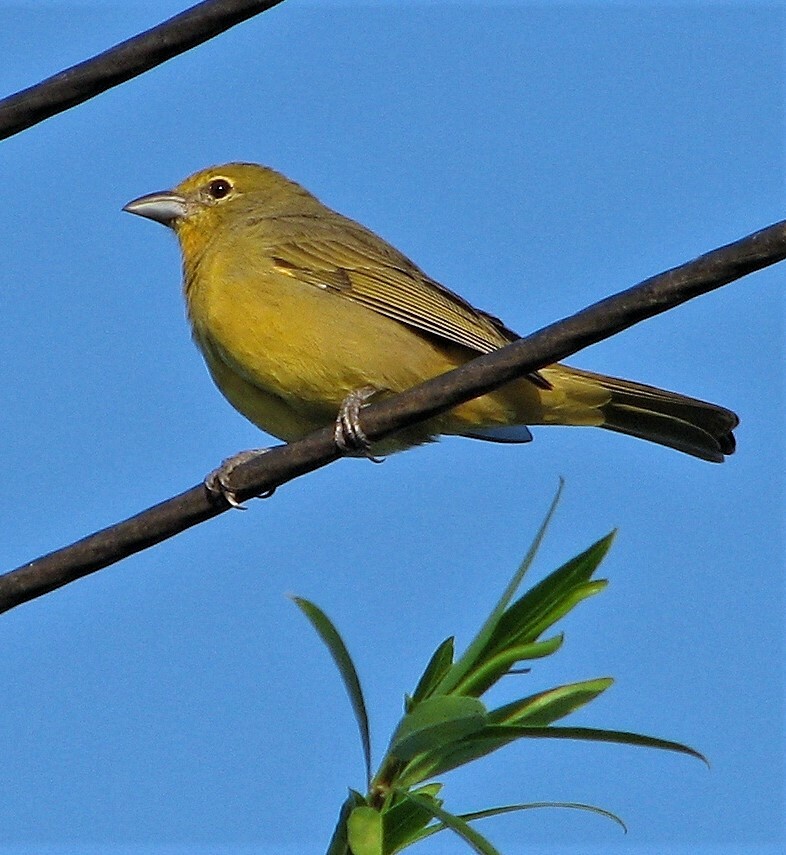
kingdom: Animalia
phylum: Chordata
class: Aves
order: Passeriformes
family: Cardinalidae
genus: Piranga
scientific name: Piranga flava
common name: Red tanager
